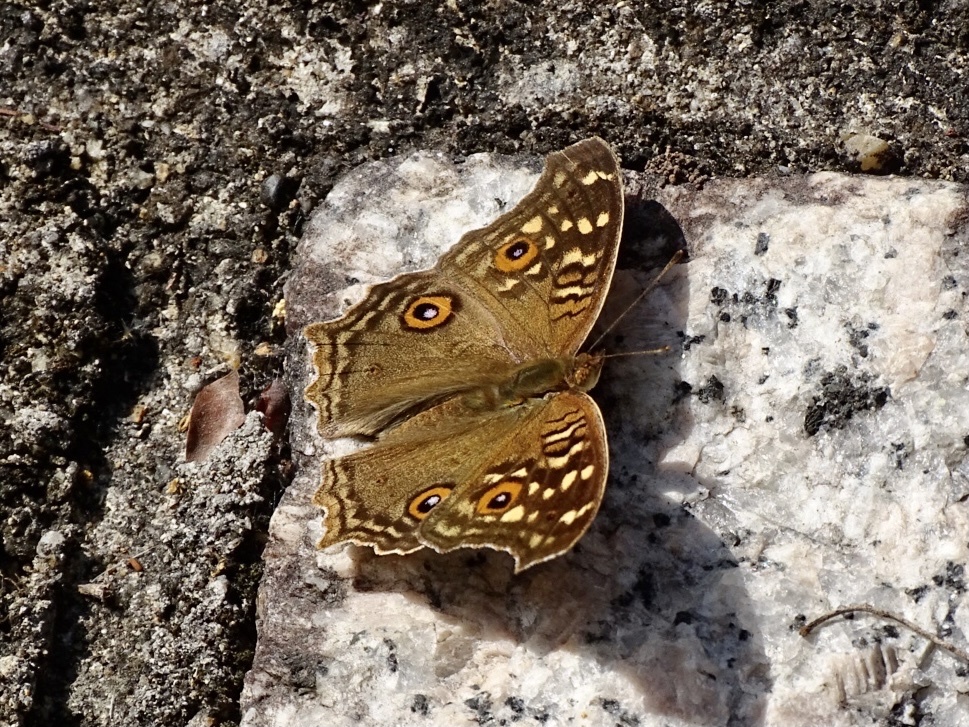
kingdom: Animalia
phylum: Arthropoda
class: Insecta
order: Lepidoptera
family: Nymphalidae
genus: Junonia
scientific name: Junonia lemonias
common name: Lemon pansy
